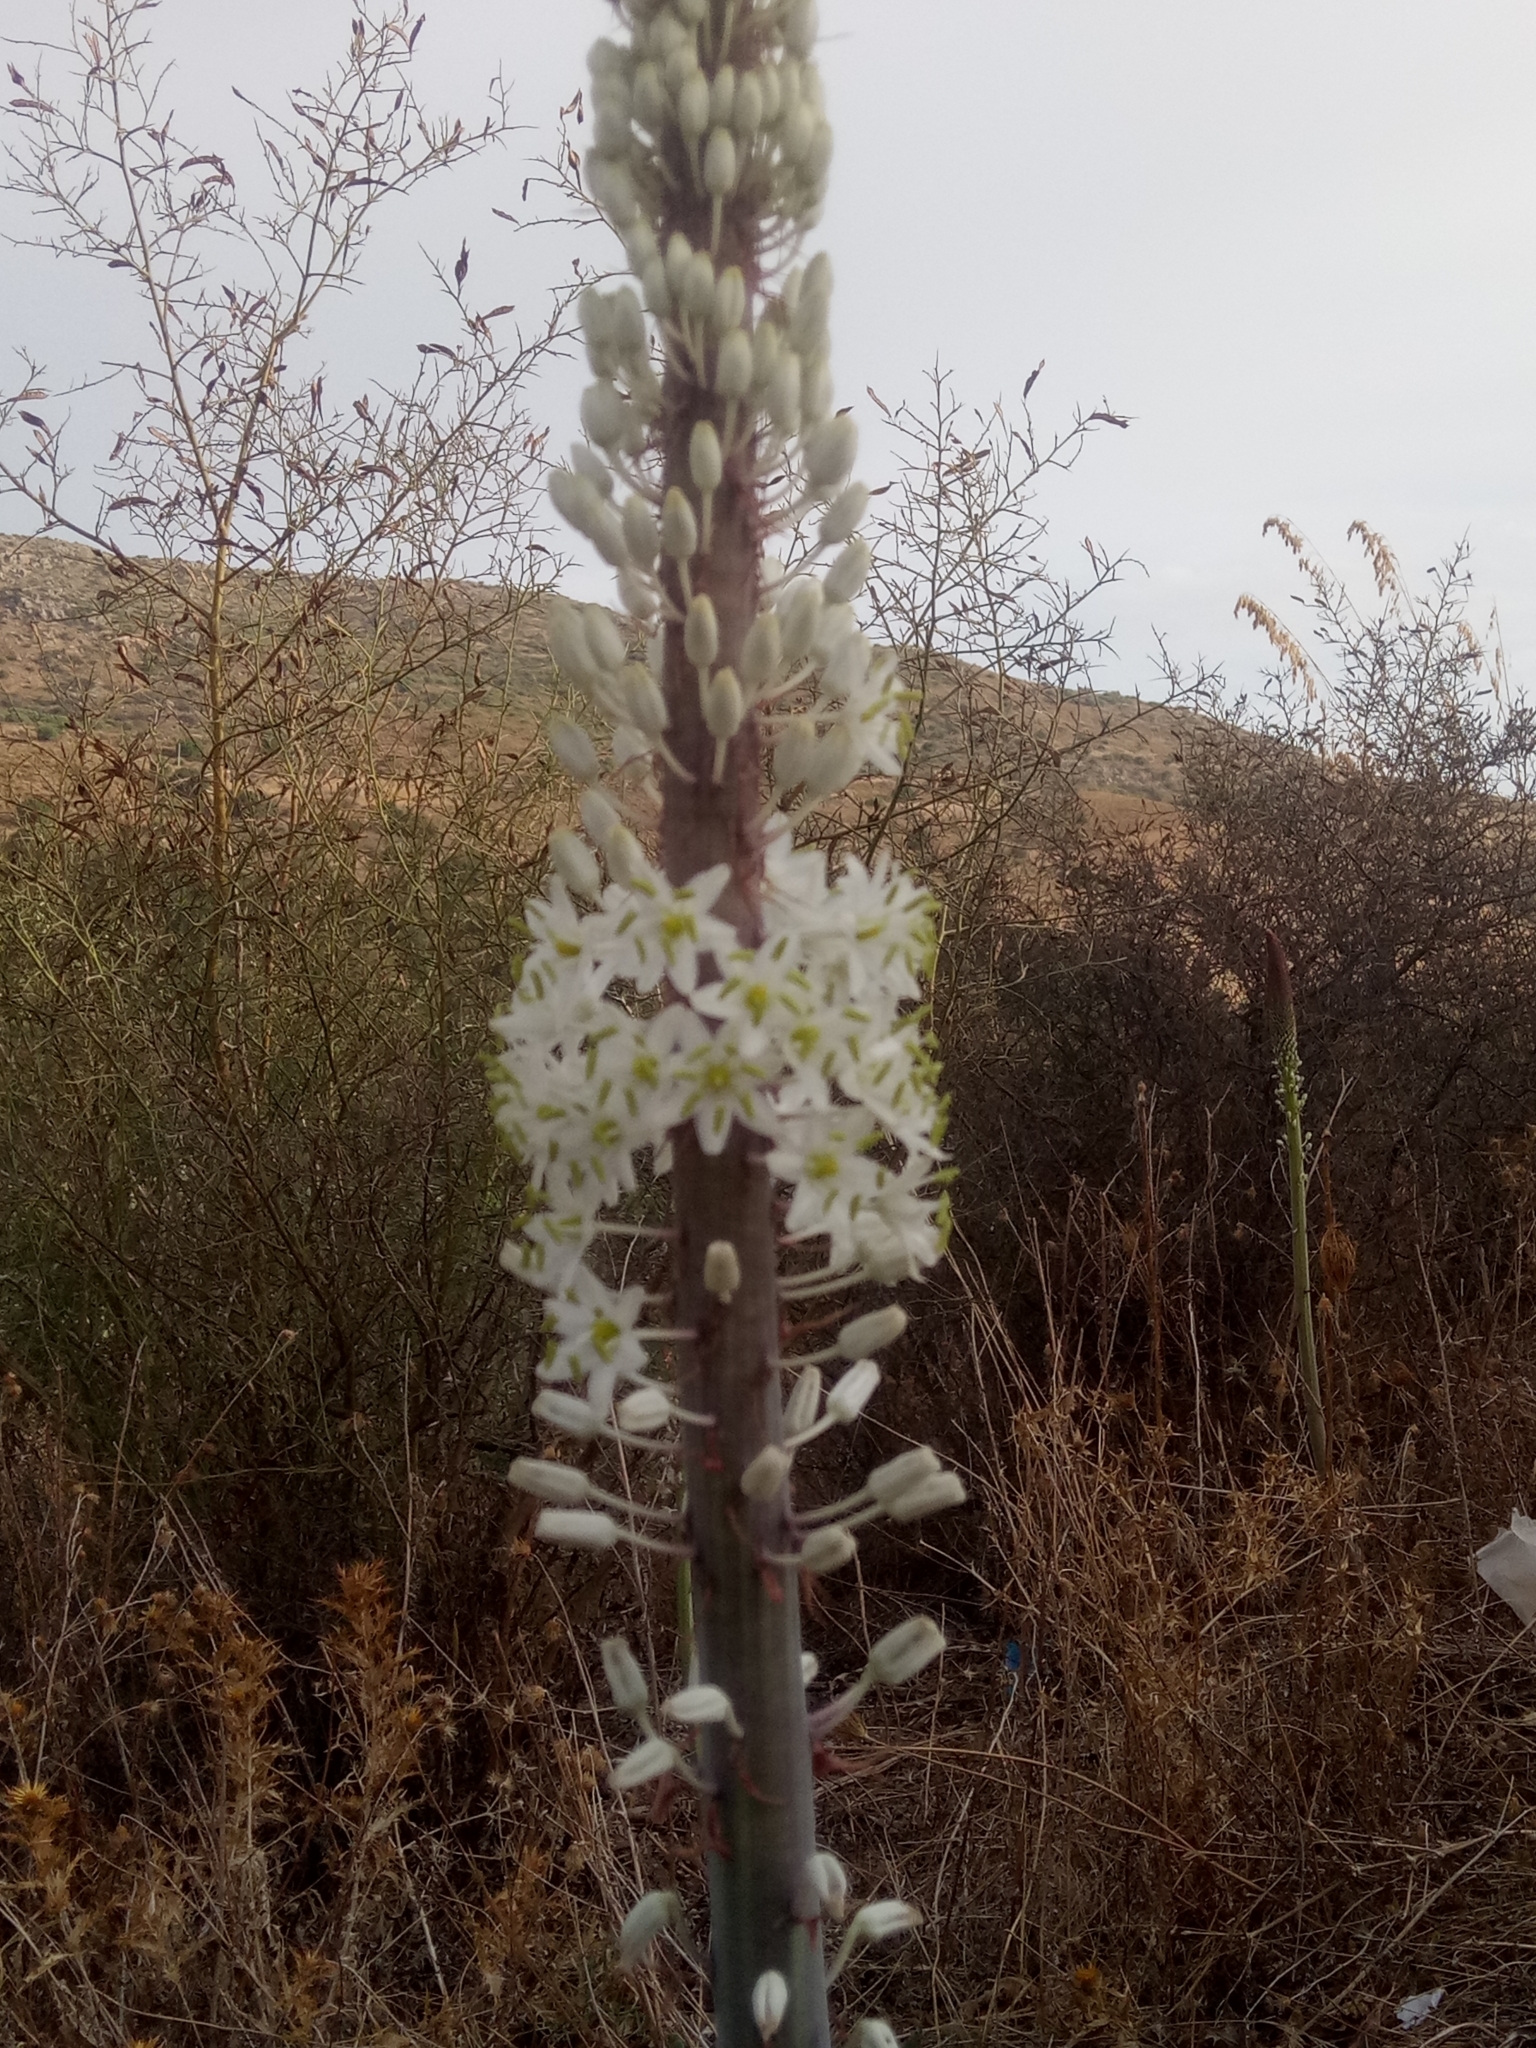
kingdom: Plantae
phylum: Tracheophyta
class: Liliopsida
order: Asparagales
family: Asparagaceae
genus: Drimia
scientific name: Drimia numidica
